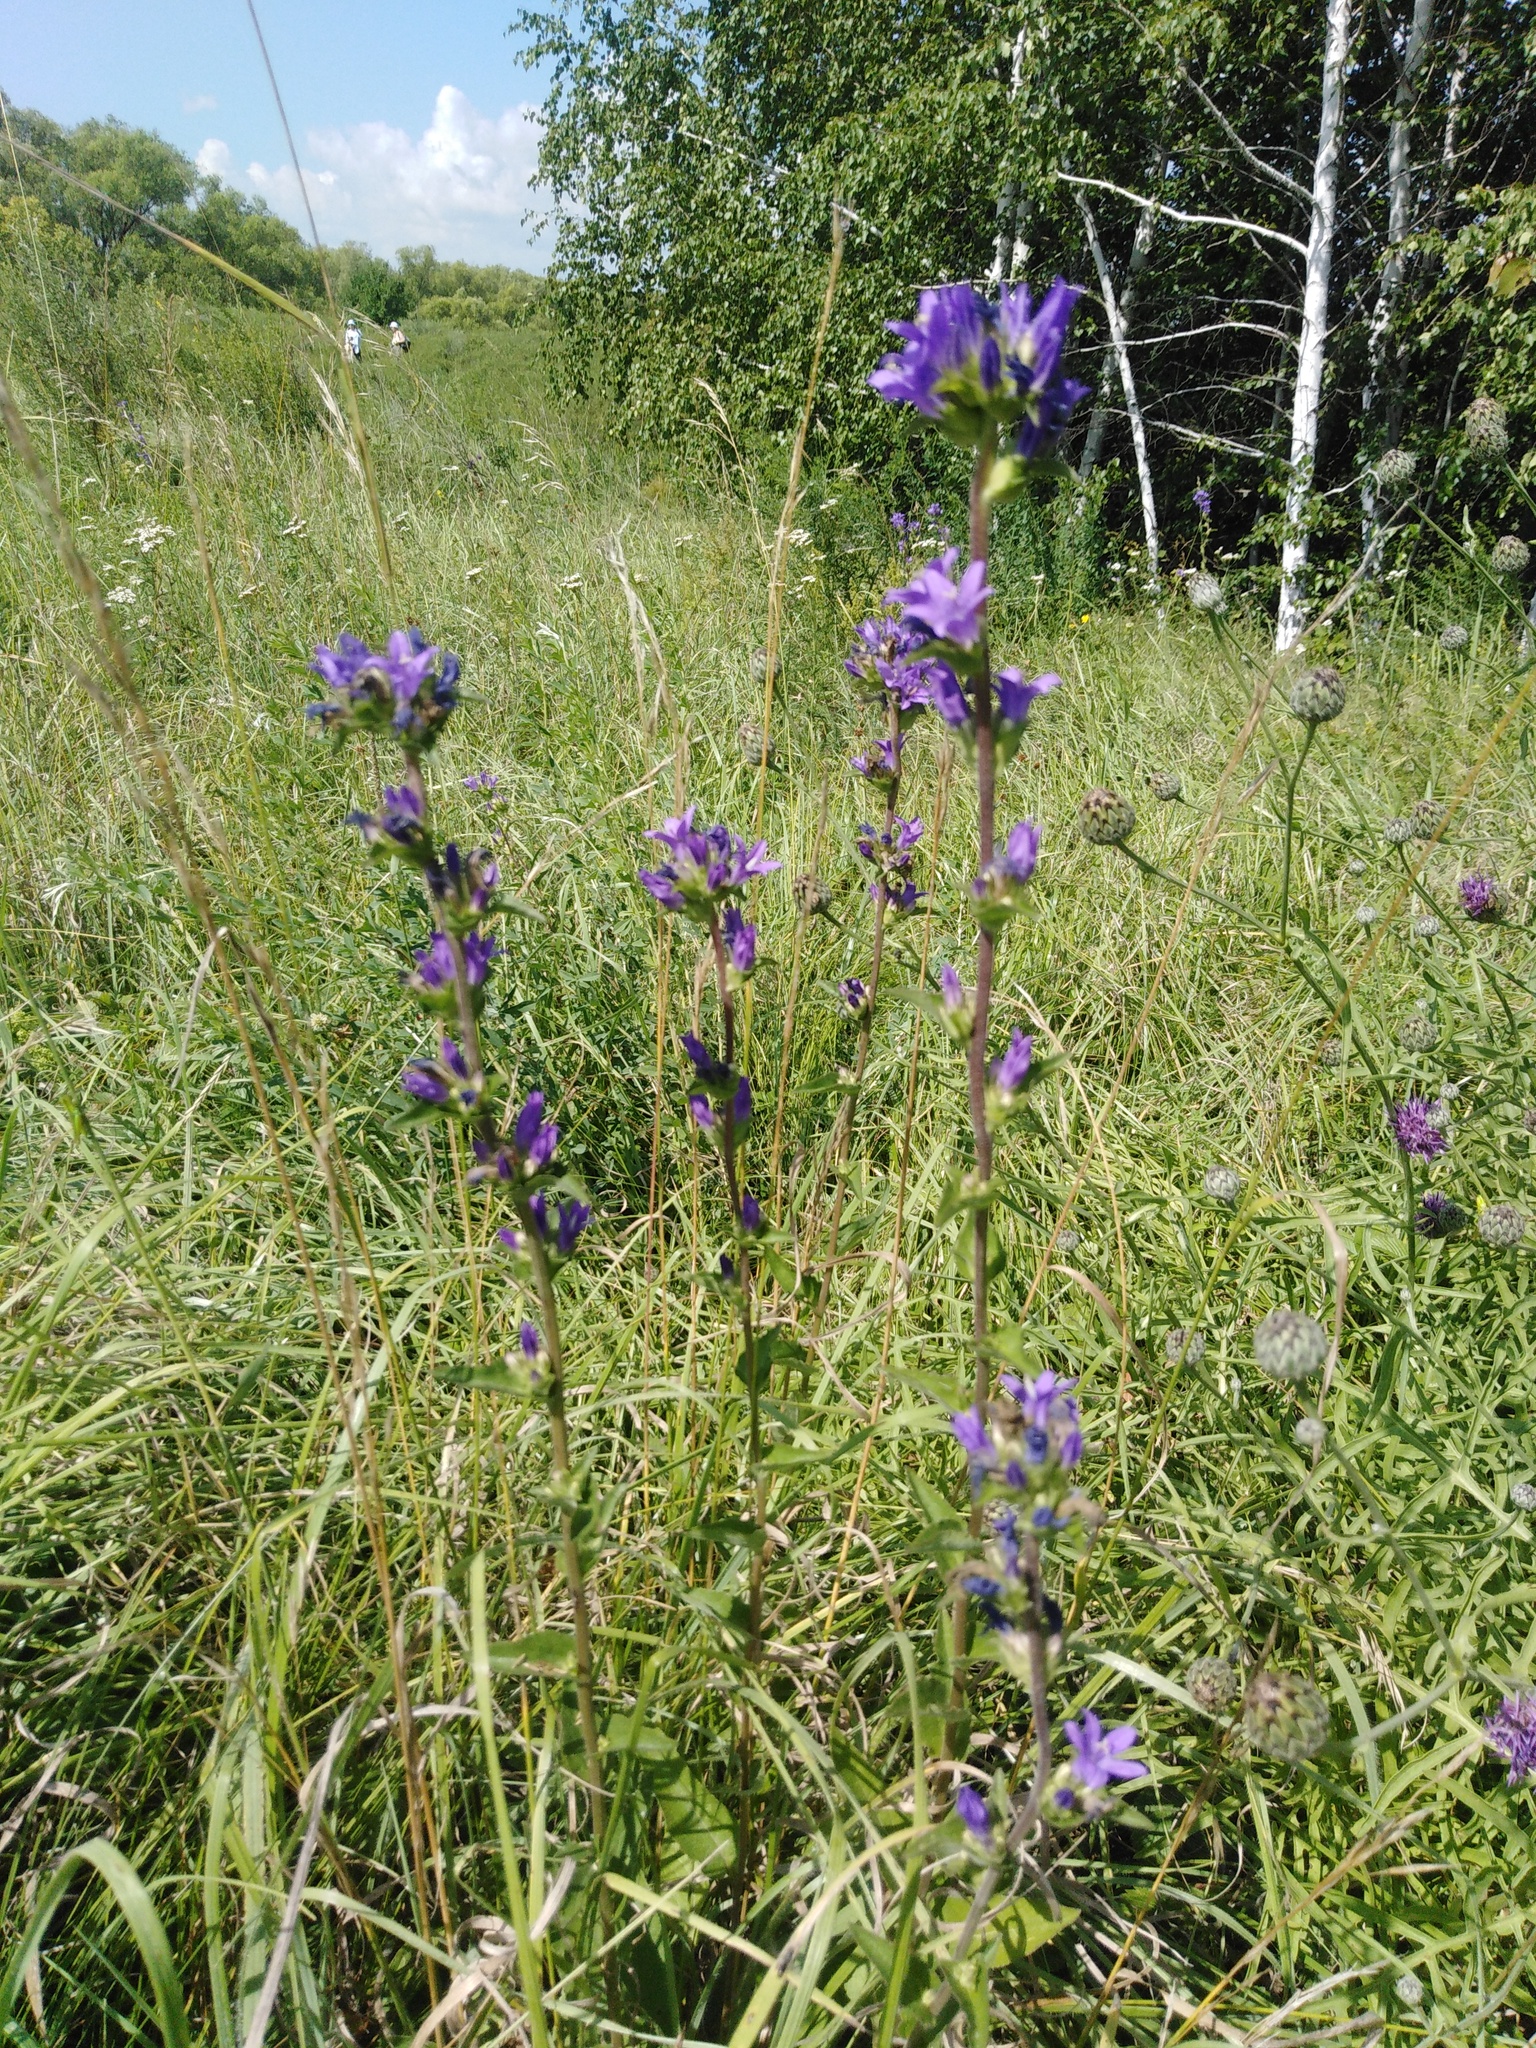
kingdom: Plantae
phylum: Tracheophyta
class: Magnoliopsida
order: Asterales
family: Campanulaceae
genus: Campanula
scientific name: Campanula glomerata
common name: Clustered bellflower
